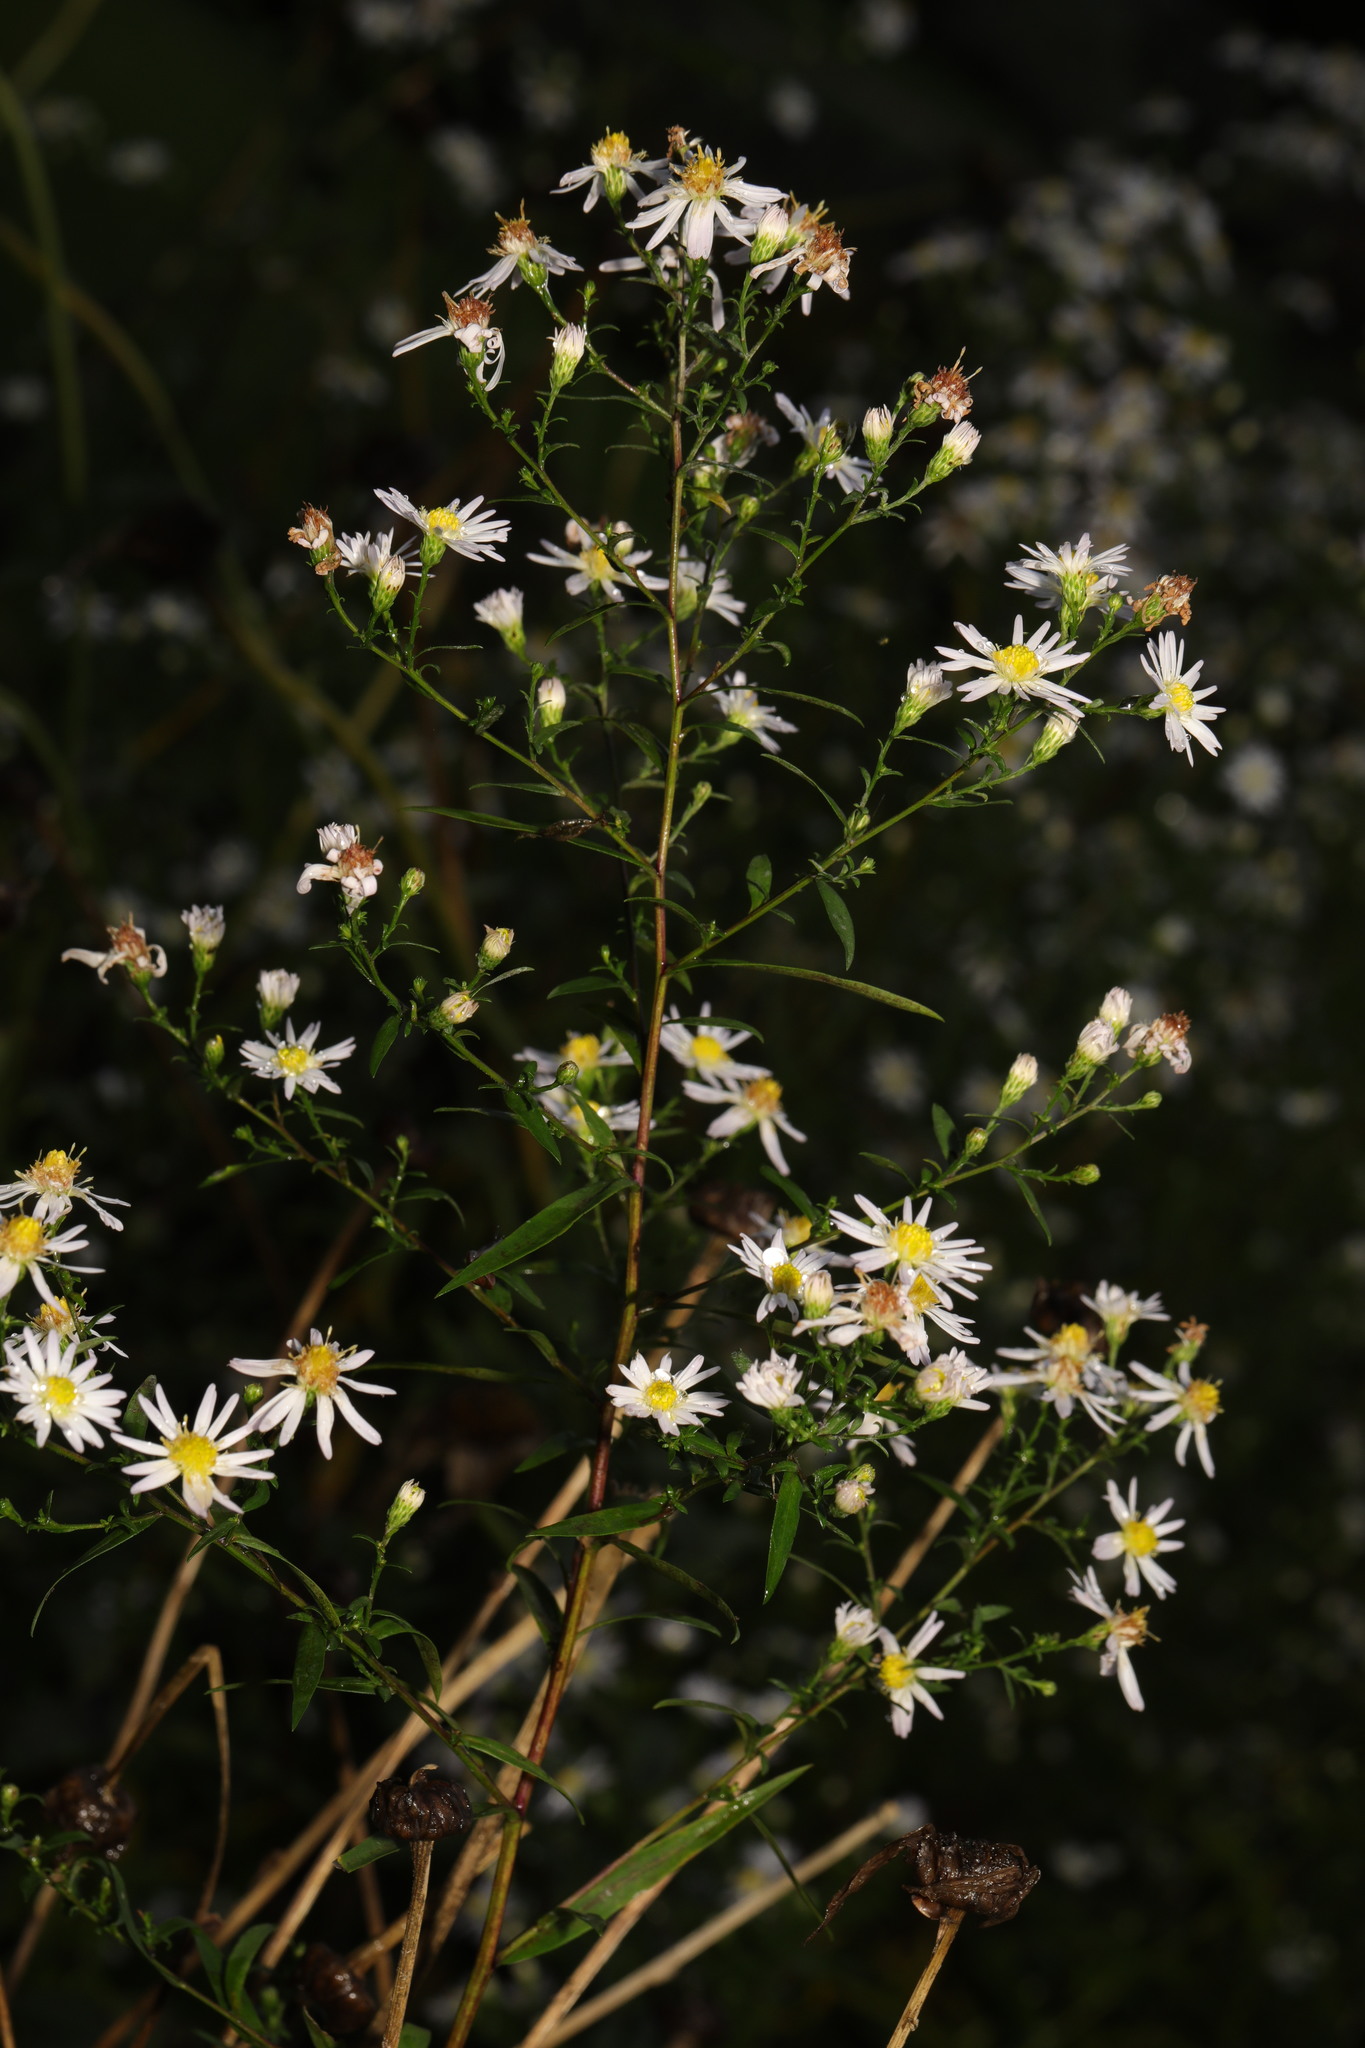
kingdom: Plantae
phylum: Tracheophyta
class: Magnoliopsida
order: Asterales
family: Asteraceae
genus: Symphyotrichum
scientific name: Symphyotrichum
